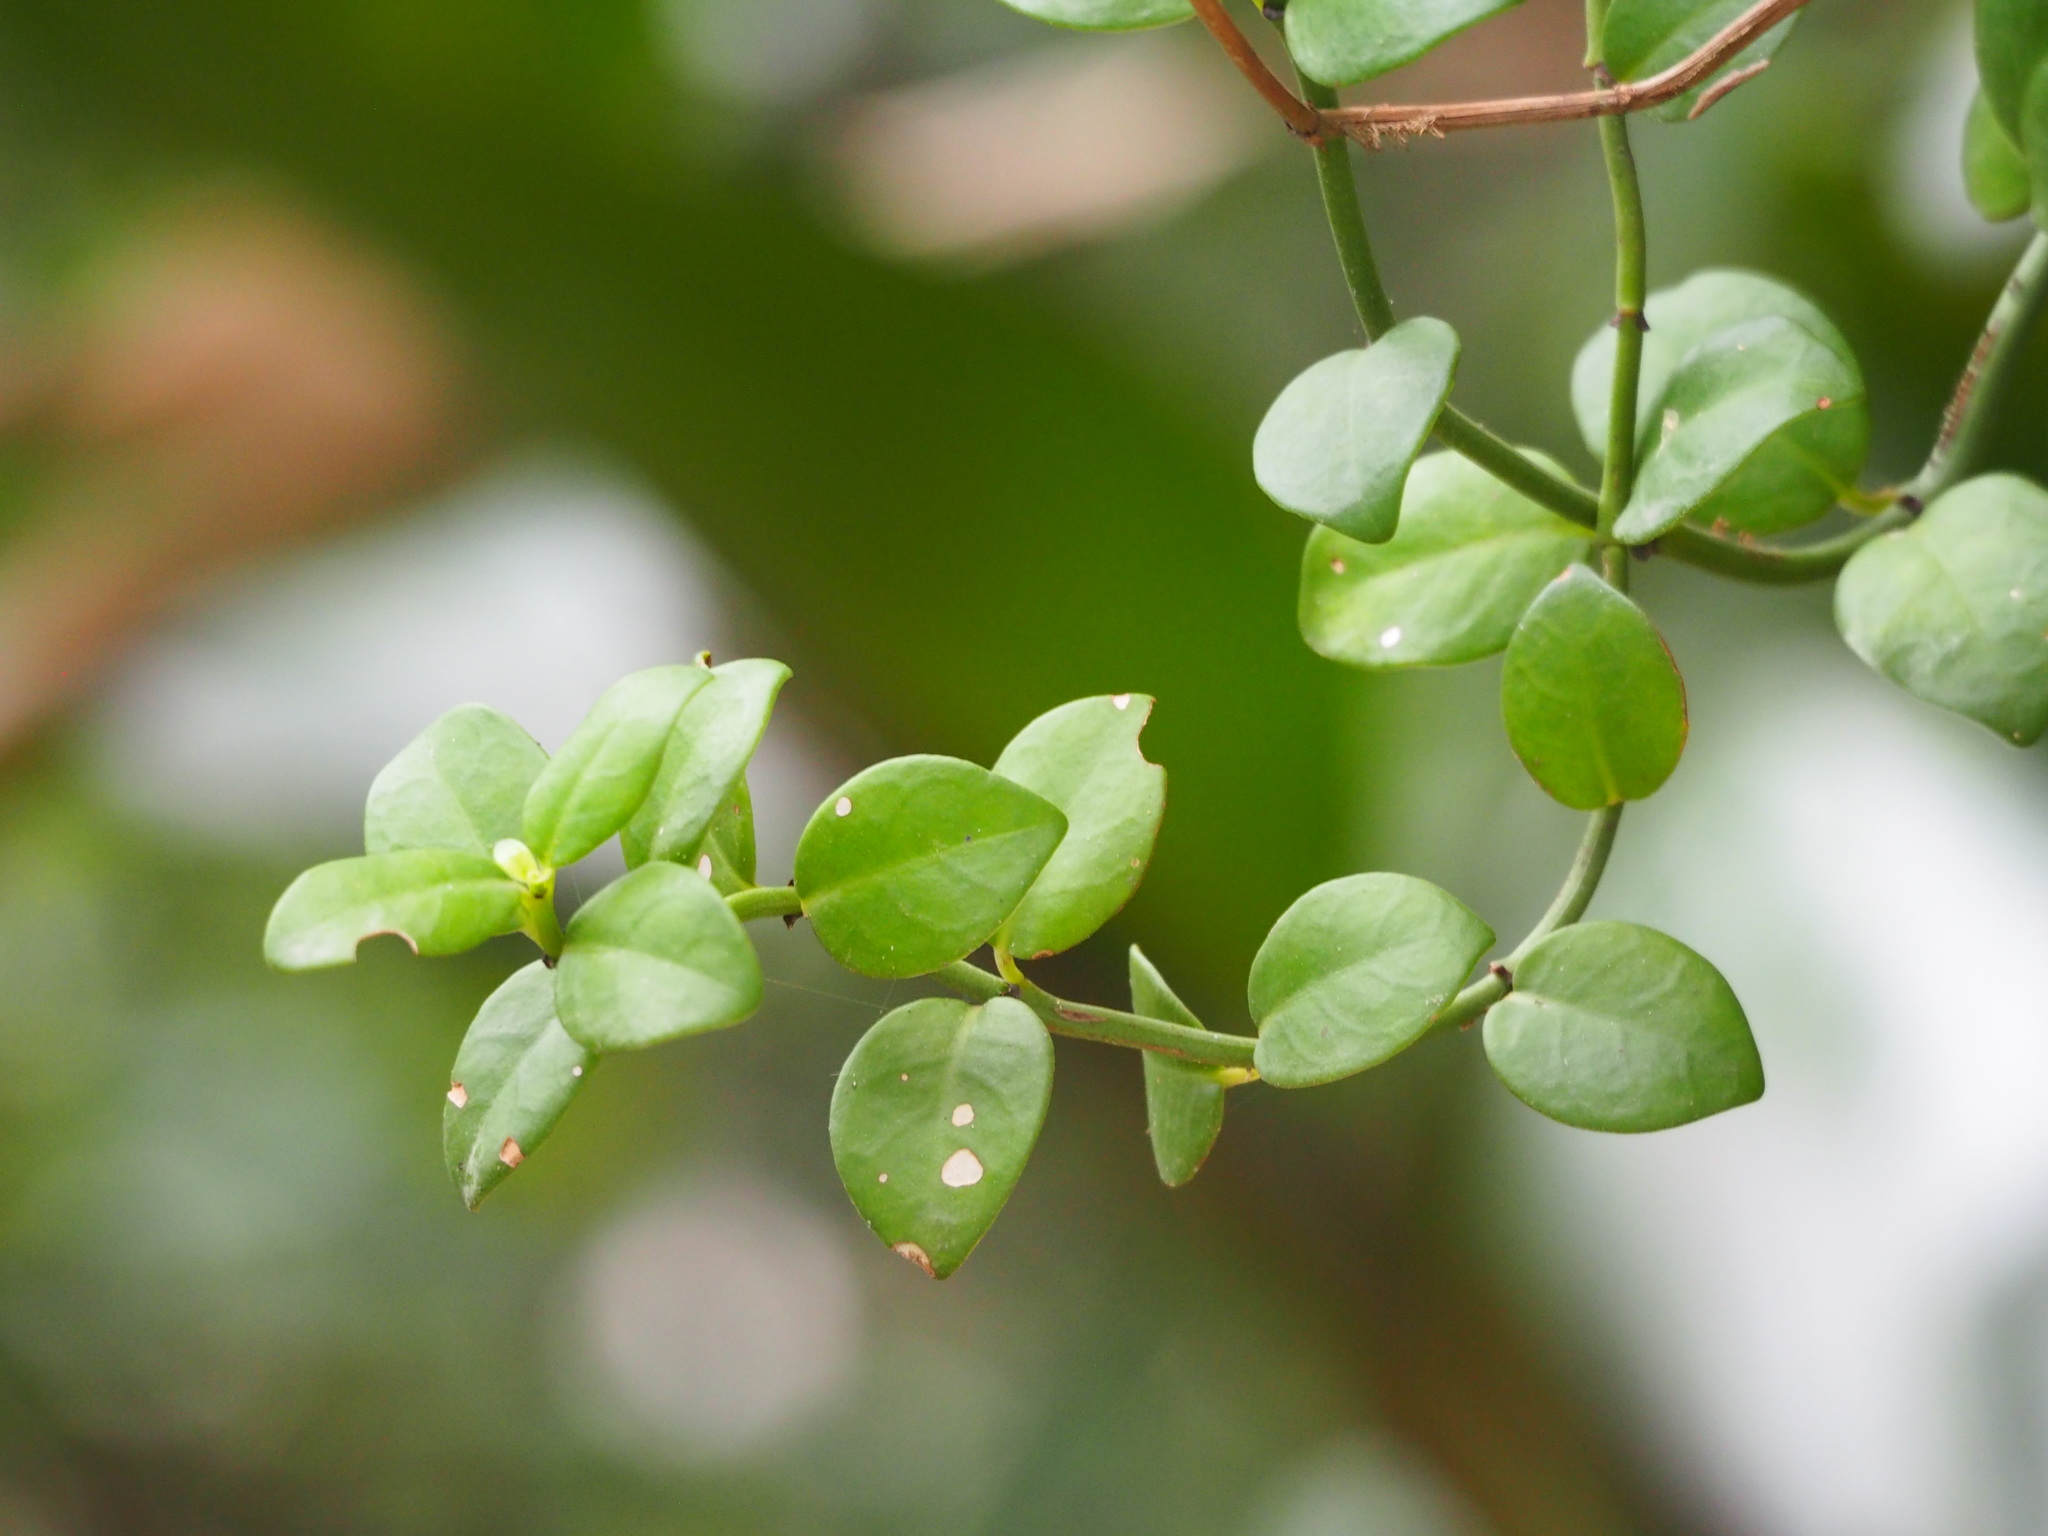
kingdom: Plantae
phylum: Tracheophyta
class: Magnoliopsida
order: Gentianales
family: Rubiaceae
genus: Psychotria
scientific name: Psychotria serpens
